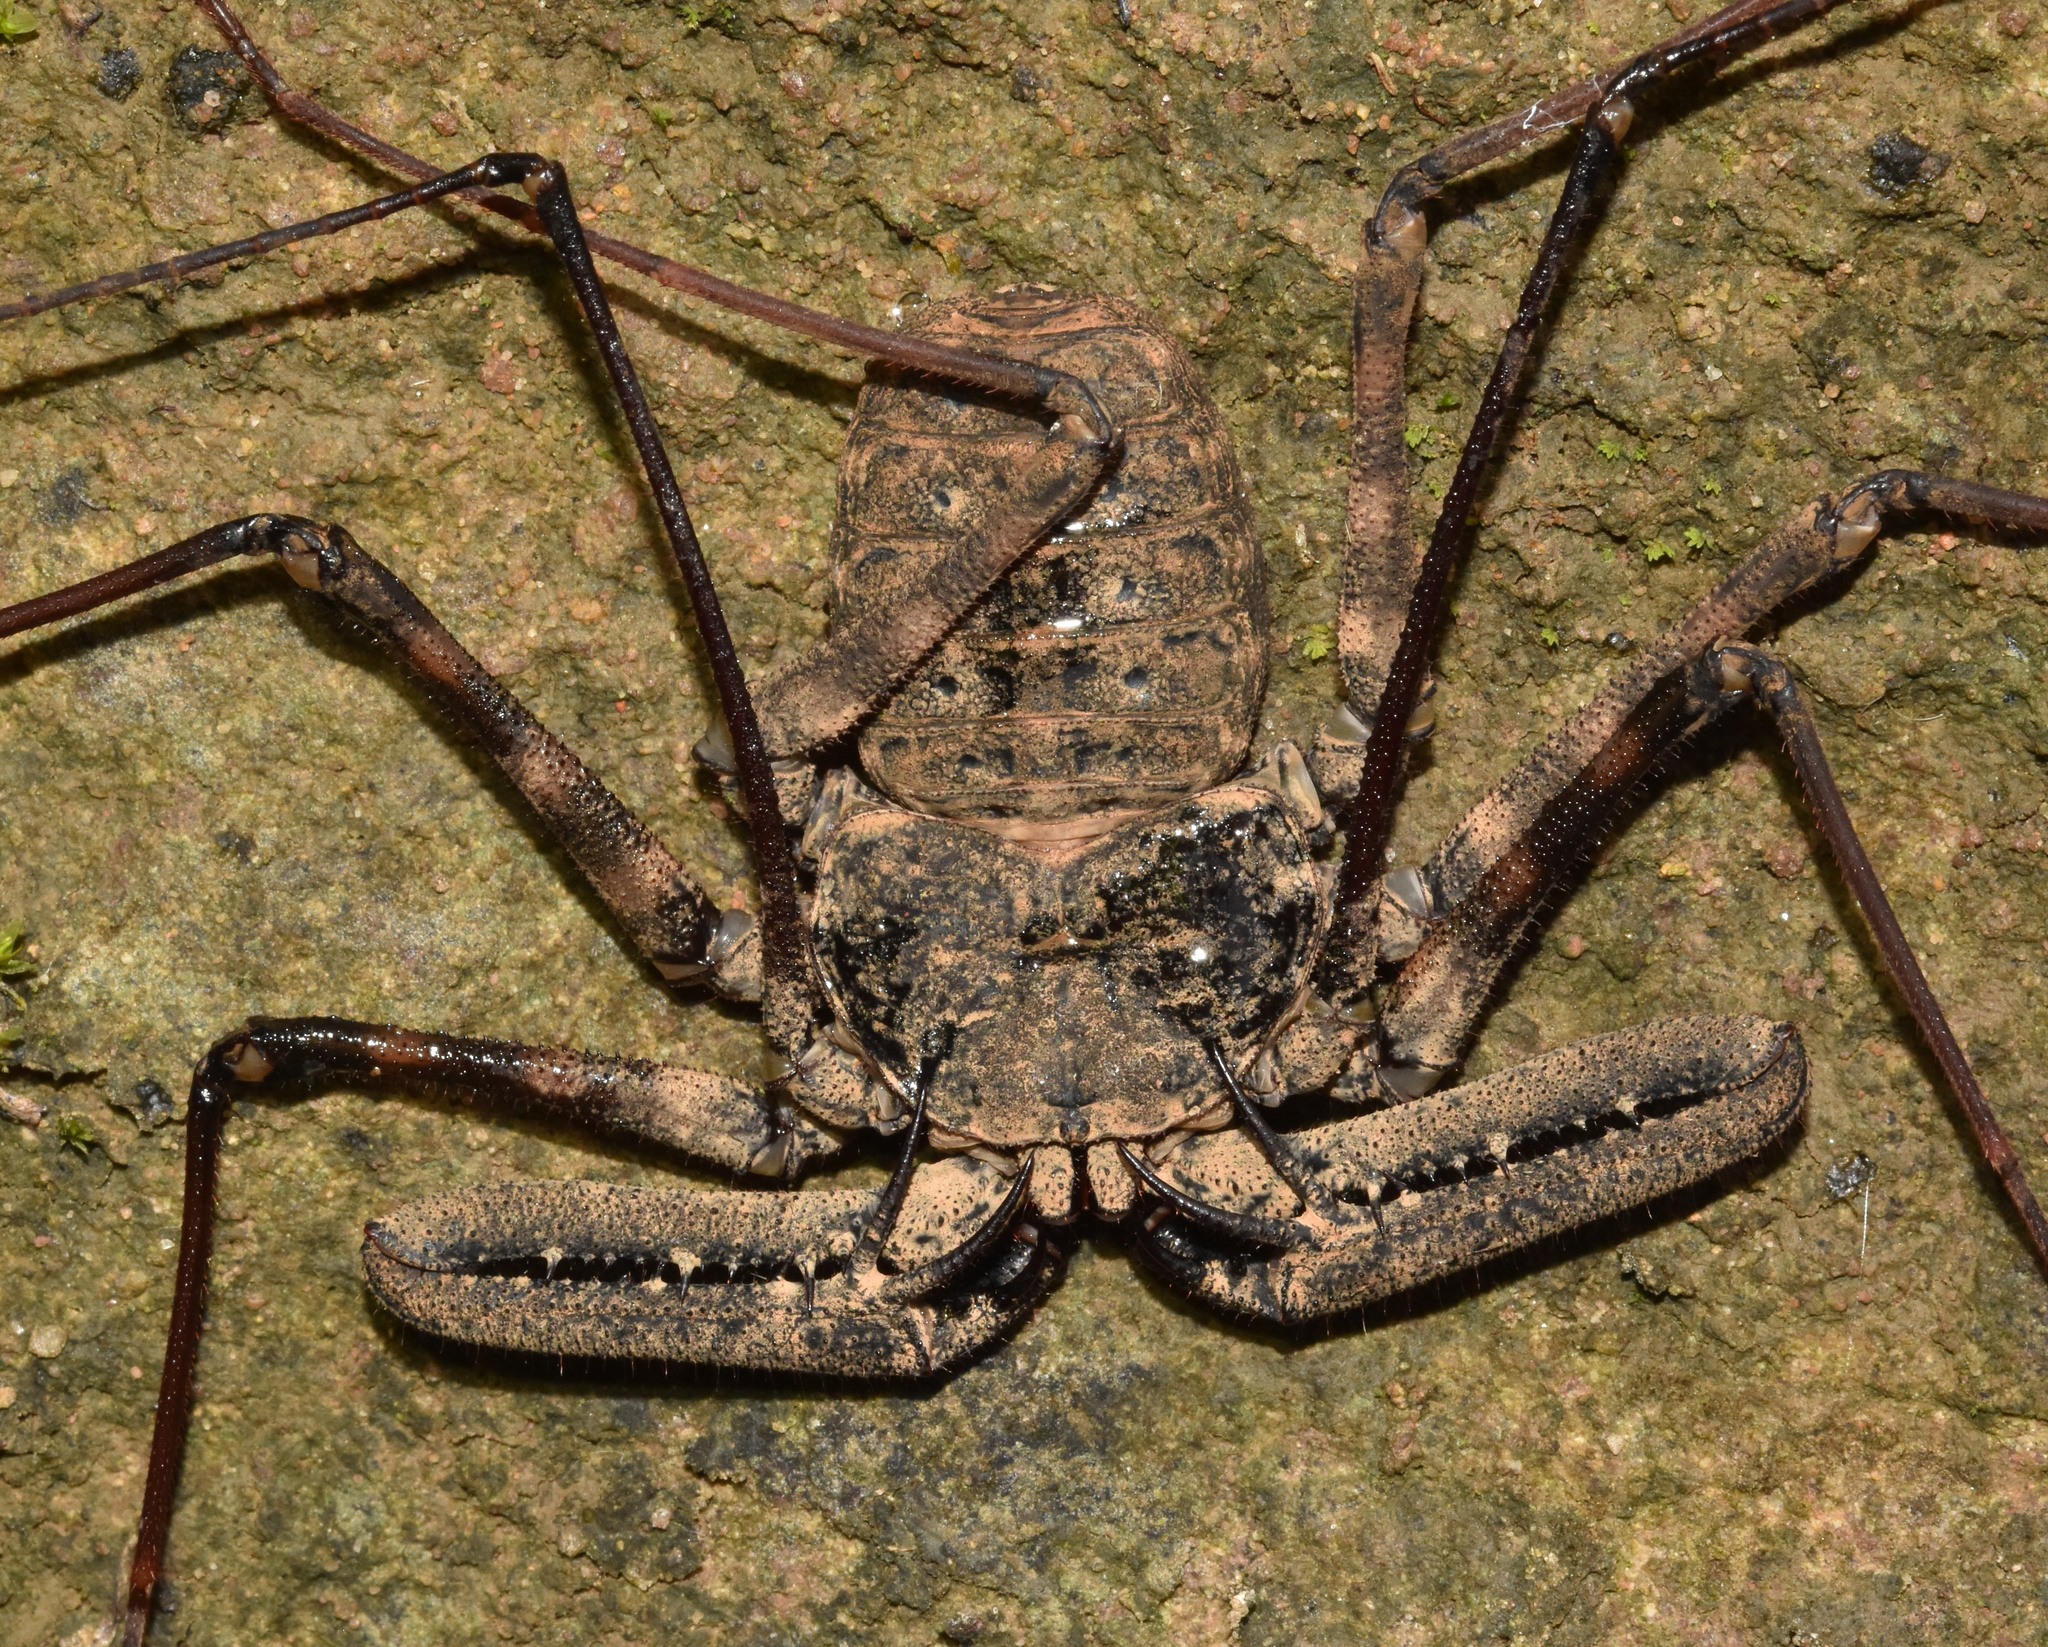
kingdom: Animalia
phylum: Arthropoda
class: Arachnida
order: Amblypygi
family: Phrynichidae
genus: Damon
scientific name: Damon annulatipes
